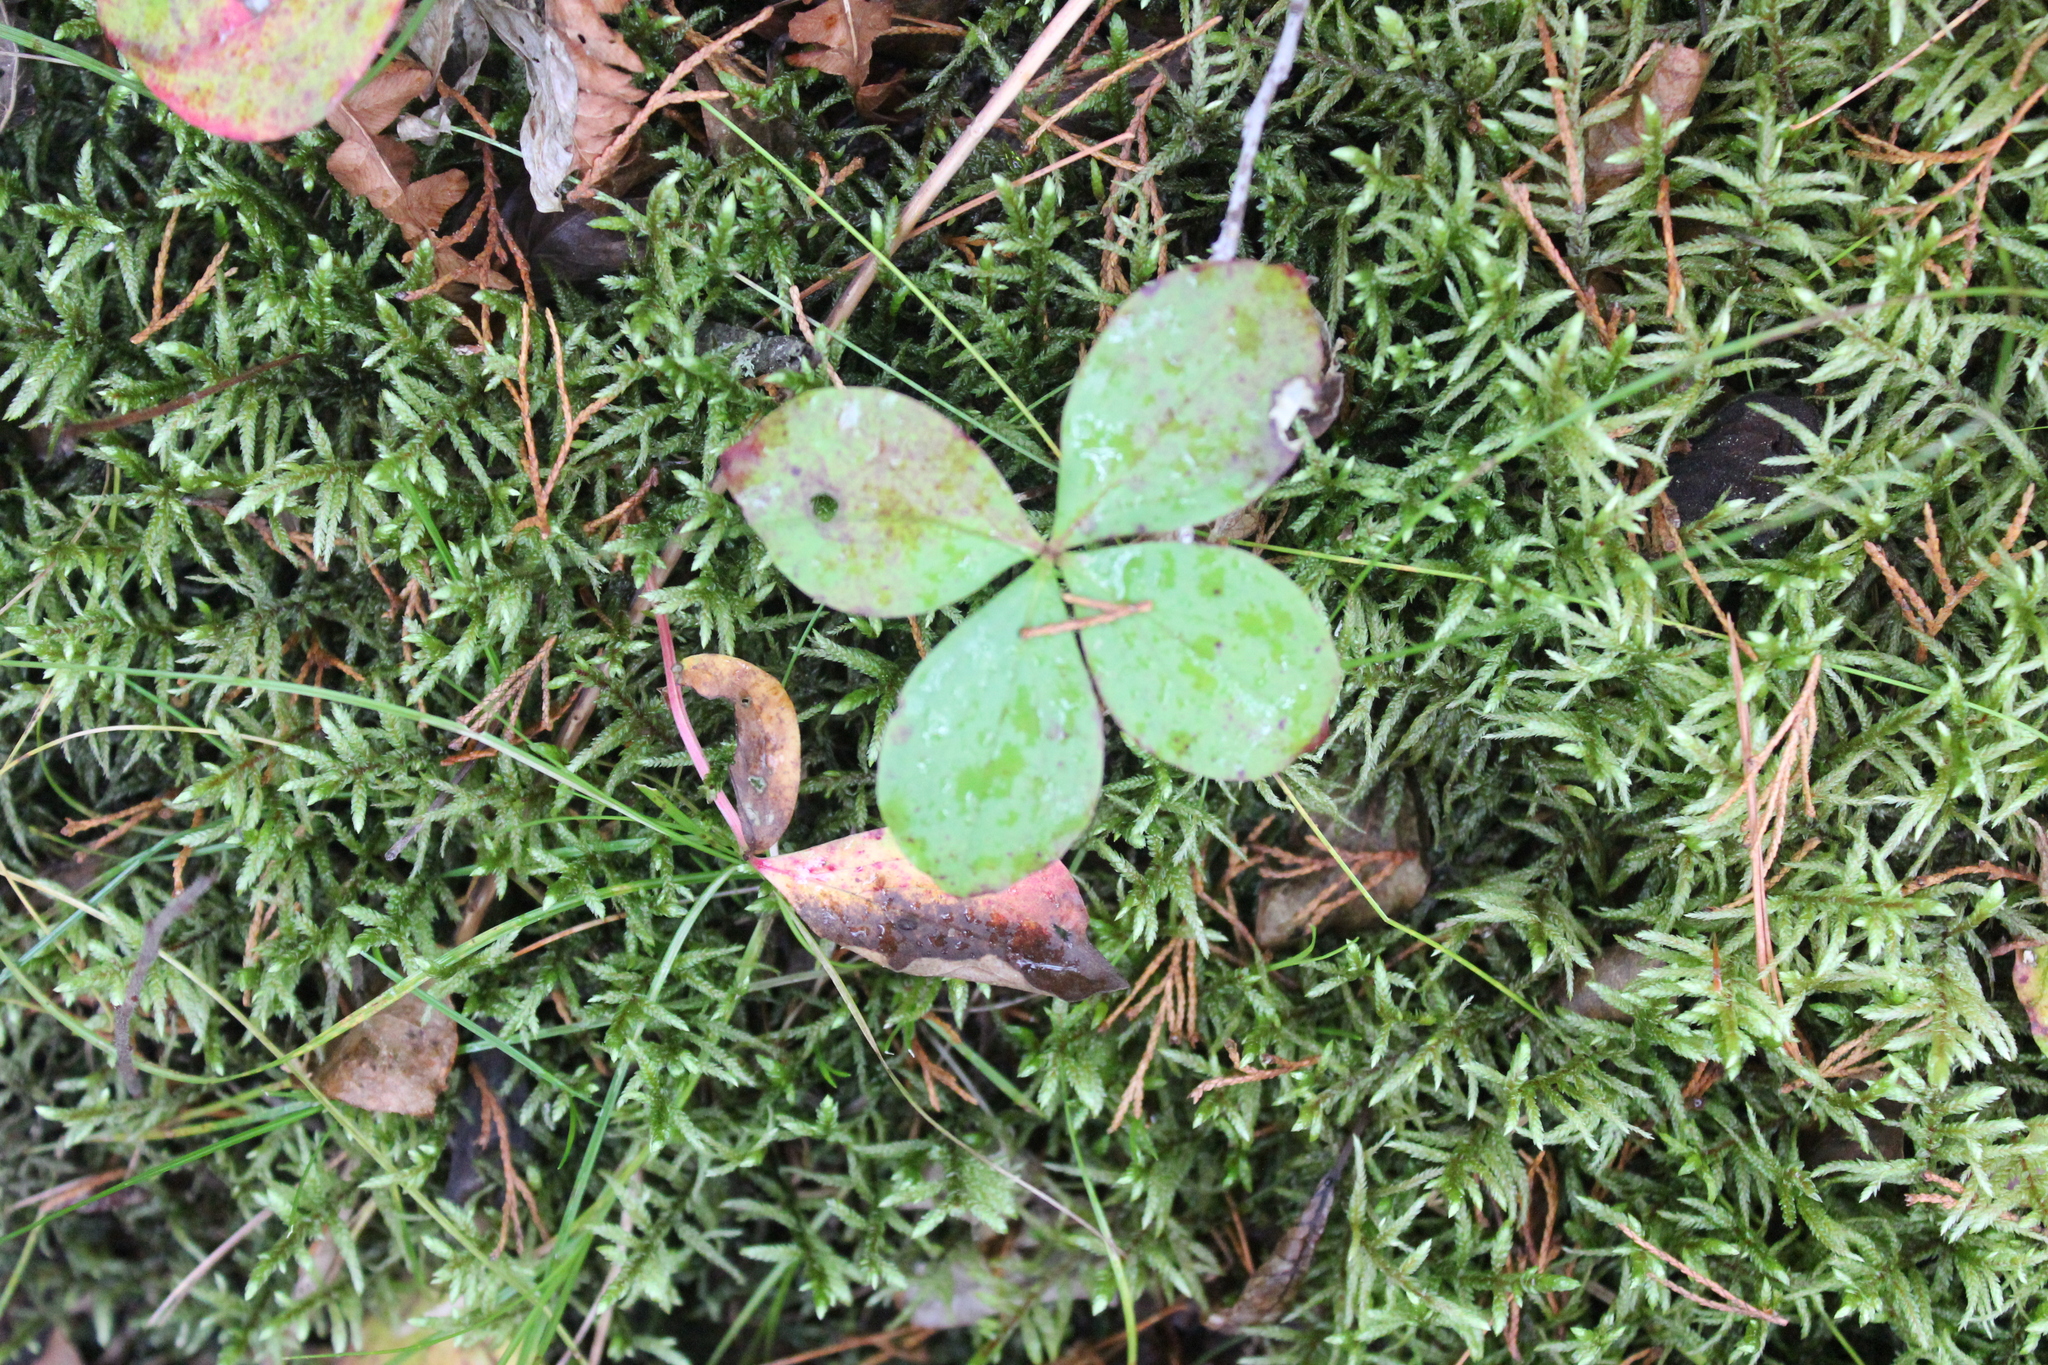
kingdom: Plantae
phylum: Tracheophyta
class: Magnoliopsida
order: Cornales
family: Cornaceae
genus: Cornus
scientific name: Cornus canadensis
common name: Creeping dogwood
